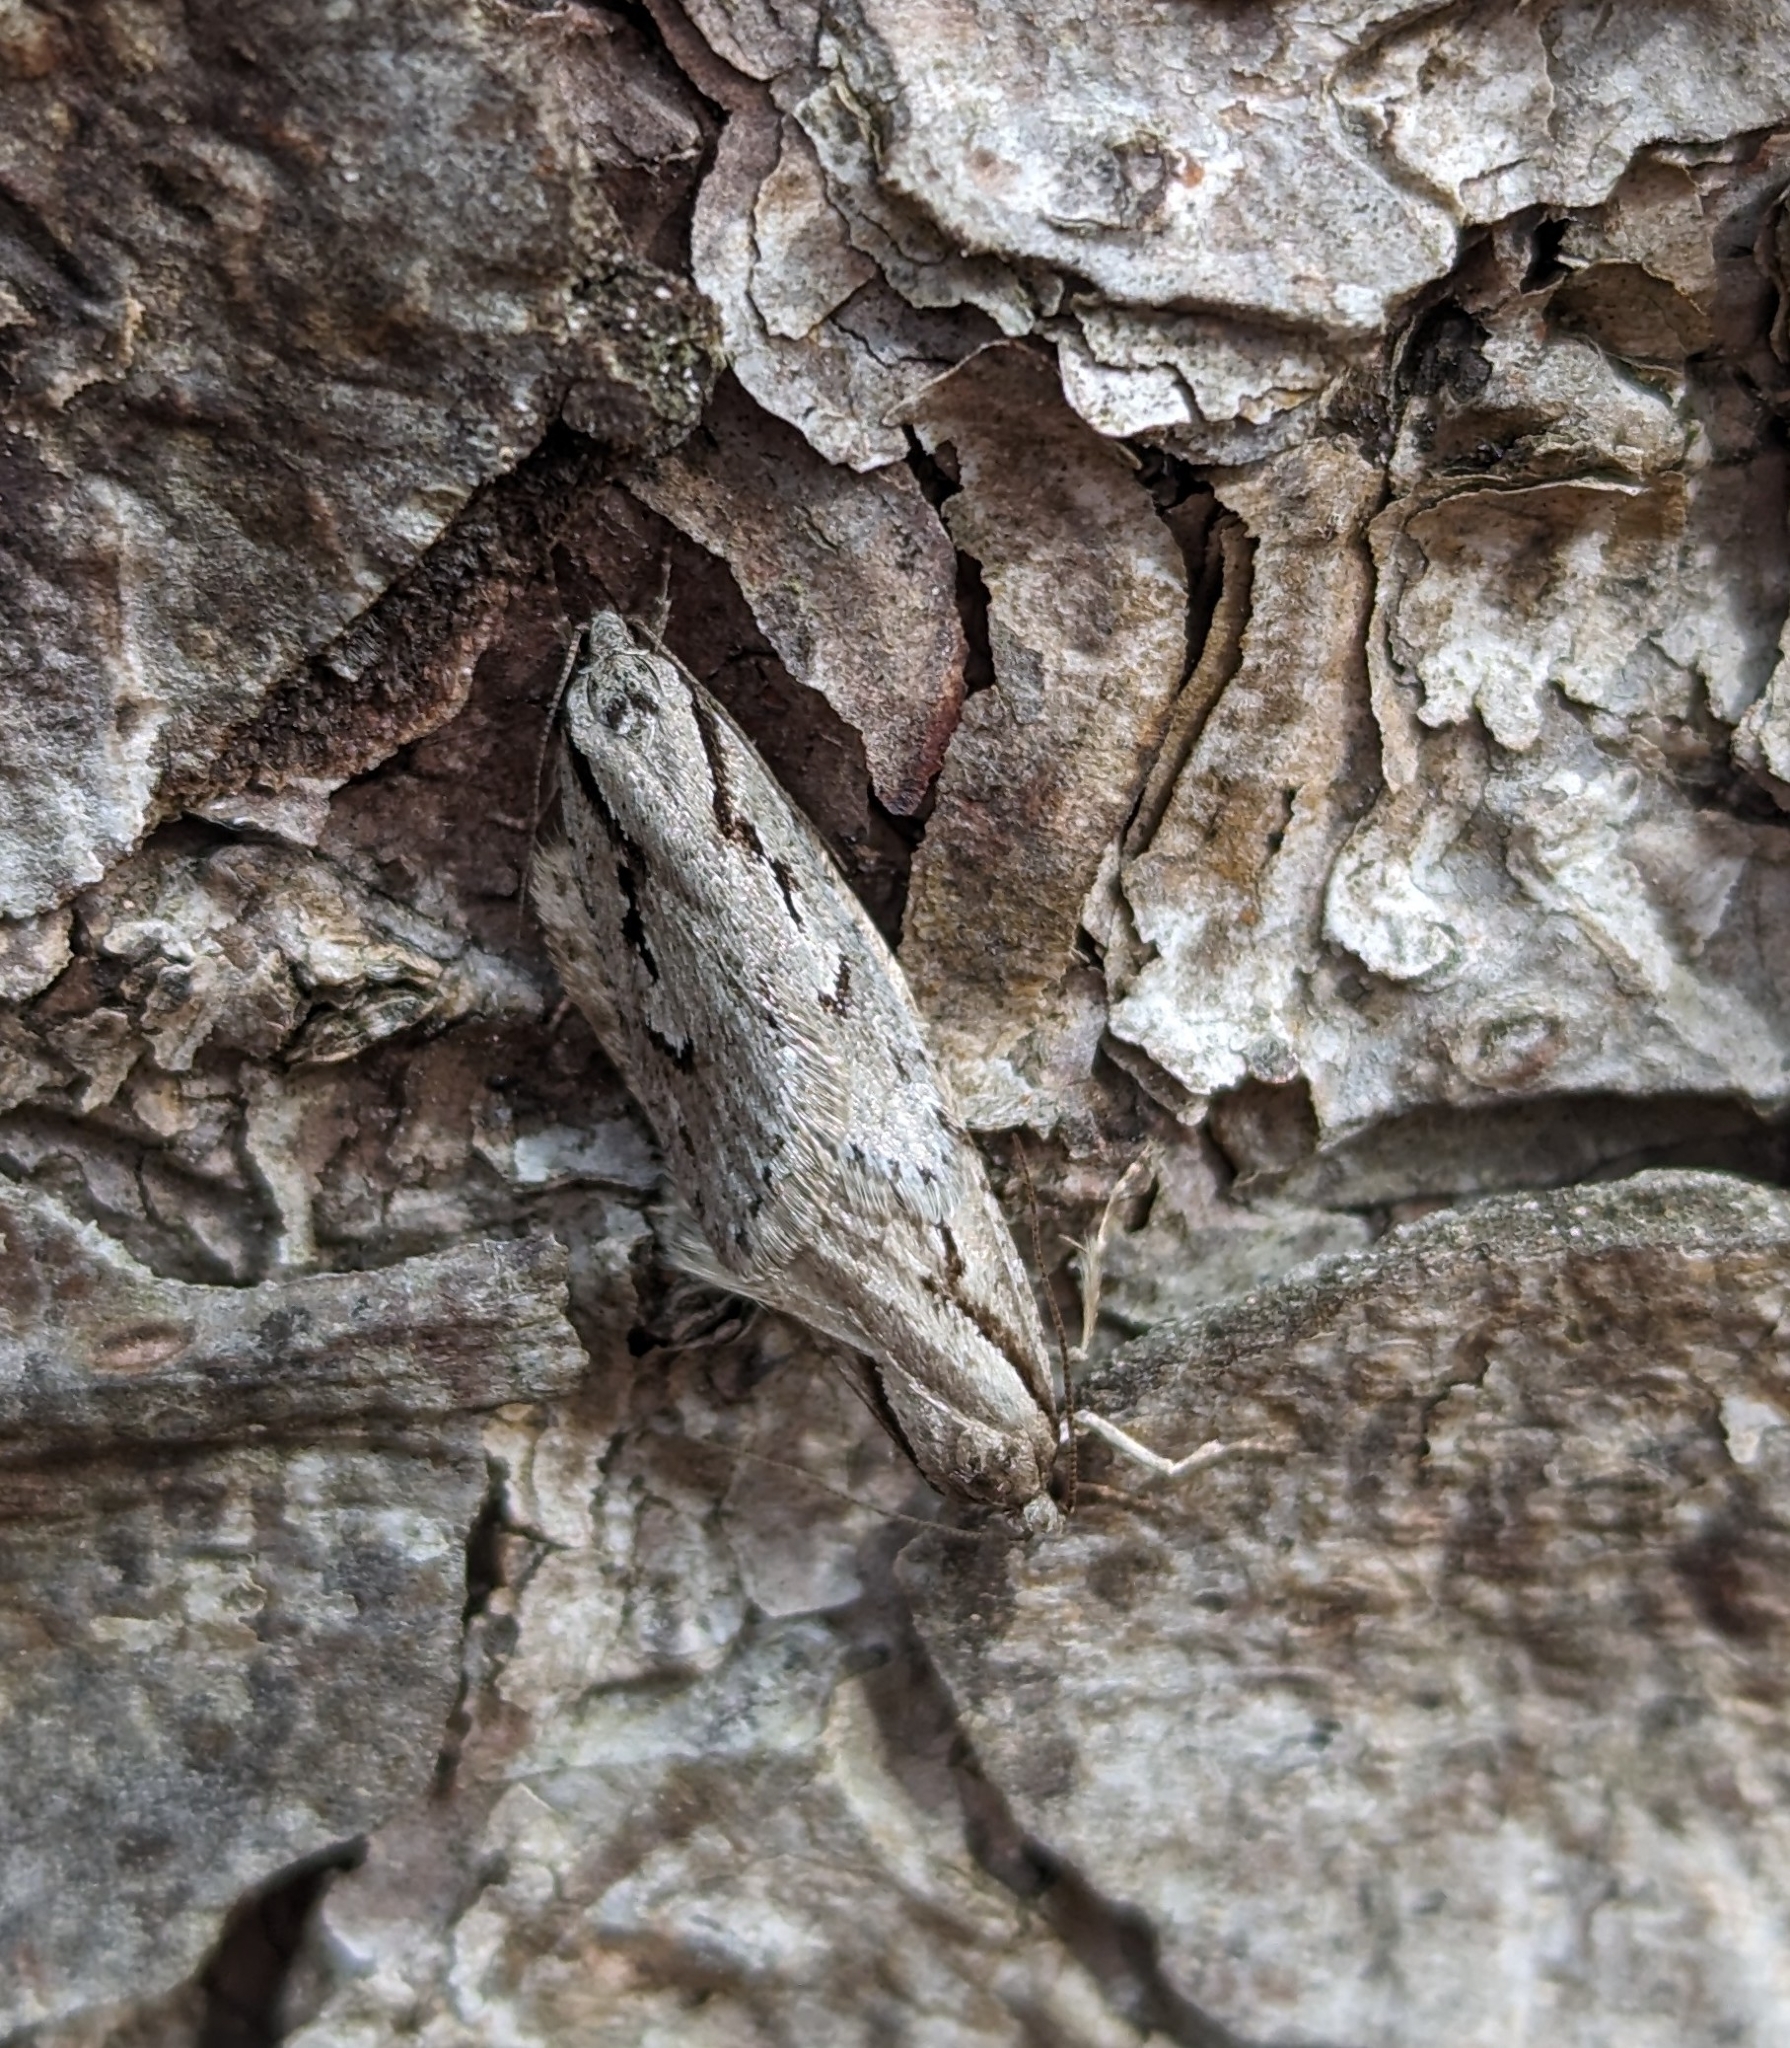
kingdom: Animalia
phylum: Arthropoda
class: Insecta
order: Lepidoptera
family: Depressariidae
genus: Semioscopis
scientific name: Semioscopis avellanella
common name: Early flat-body
